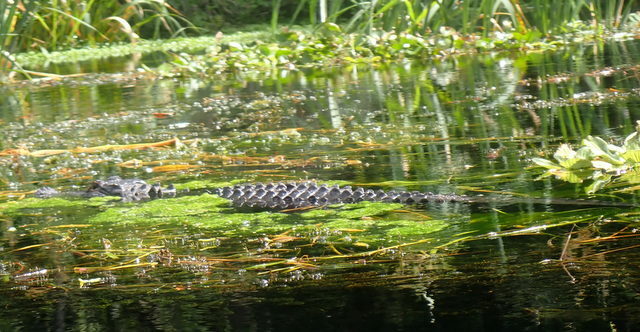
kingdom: Animalia
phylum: Chordata
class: Crocodylia
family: Alligatoridae
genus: Alligator
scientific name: Alligator mississippiensis
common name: American alligator
